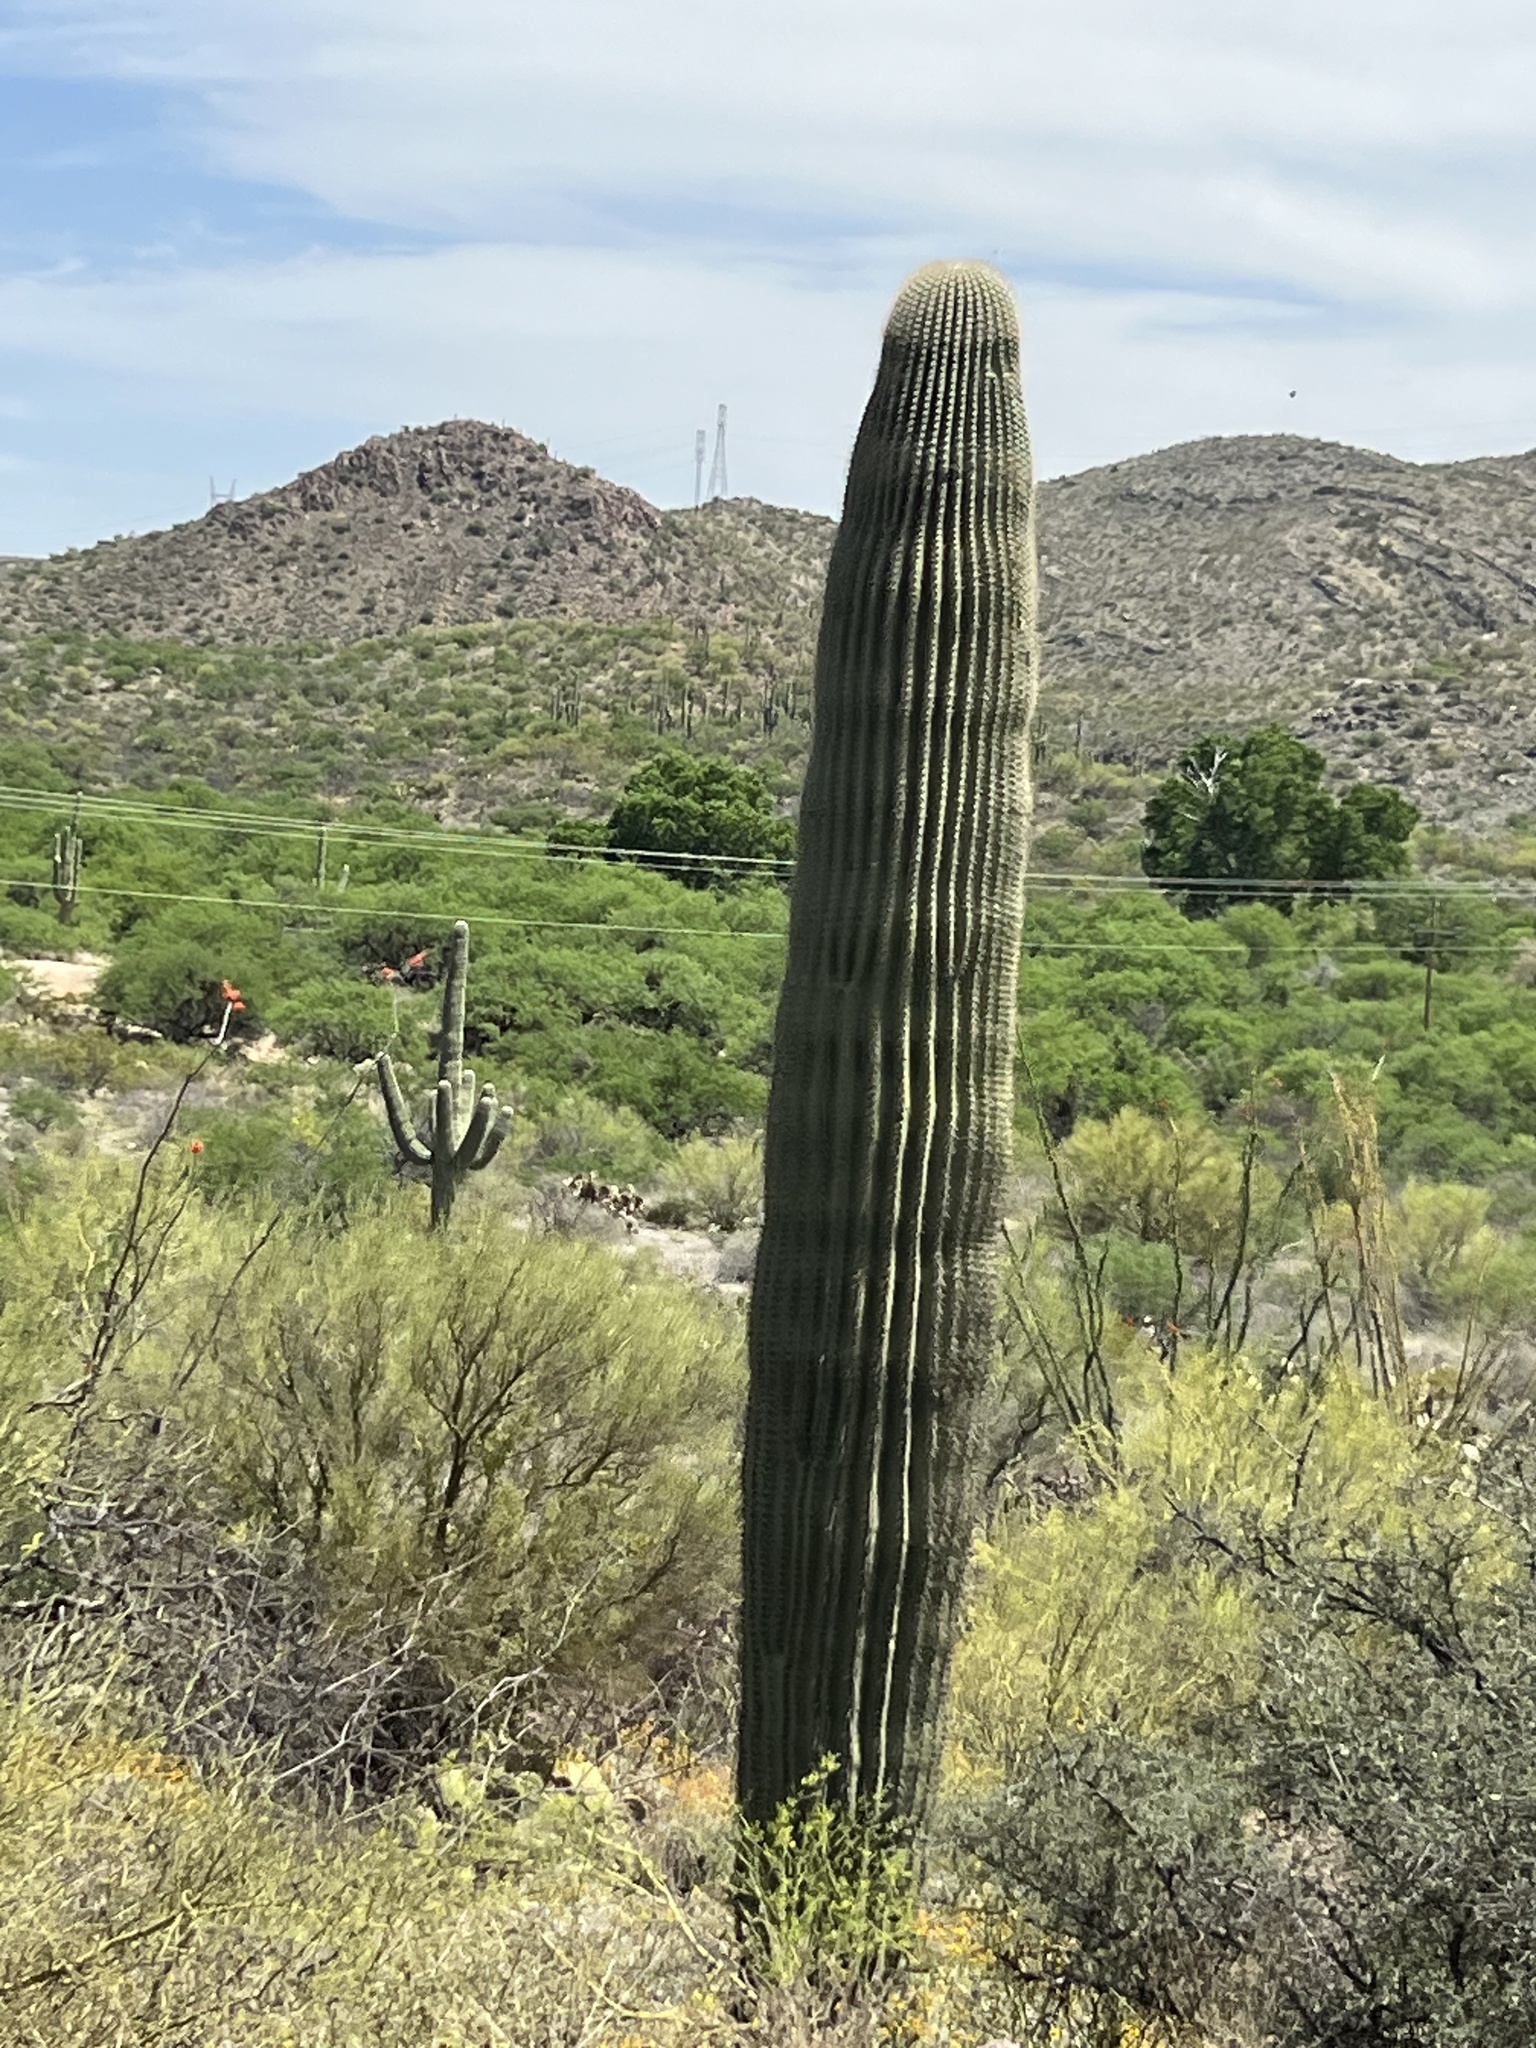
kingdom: Plantae
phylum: Tracheophyta
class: Magnoliopsida
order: Caryophyllales
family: Cactaceae
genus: Carnegiea
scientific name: Carnegiea gigantea
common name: Saguaro
